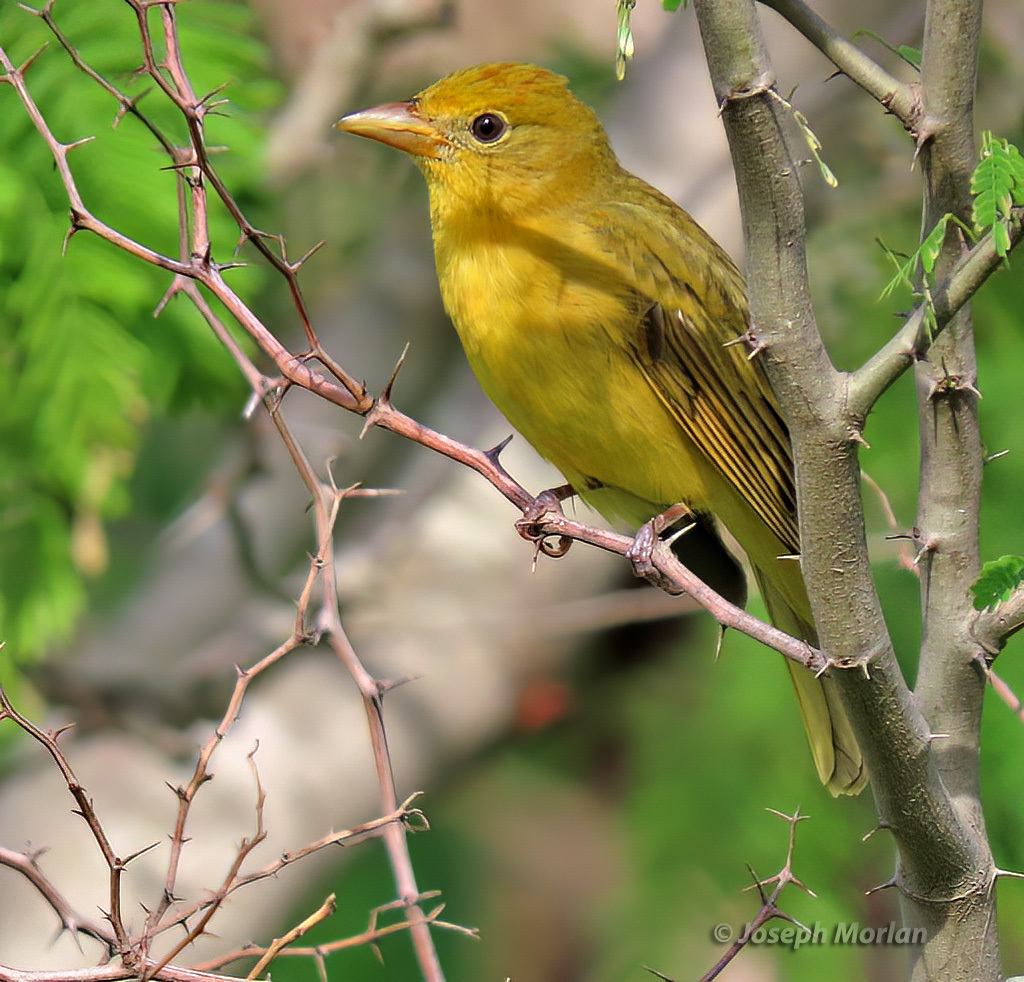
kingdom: Animalia
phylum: Chordata
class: Aves
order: Passeriformes
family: Cardinalidae
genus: Piranga
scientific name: Piranga rubra
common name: Summer tanager
